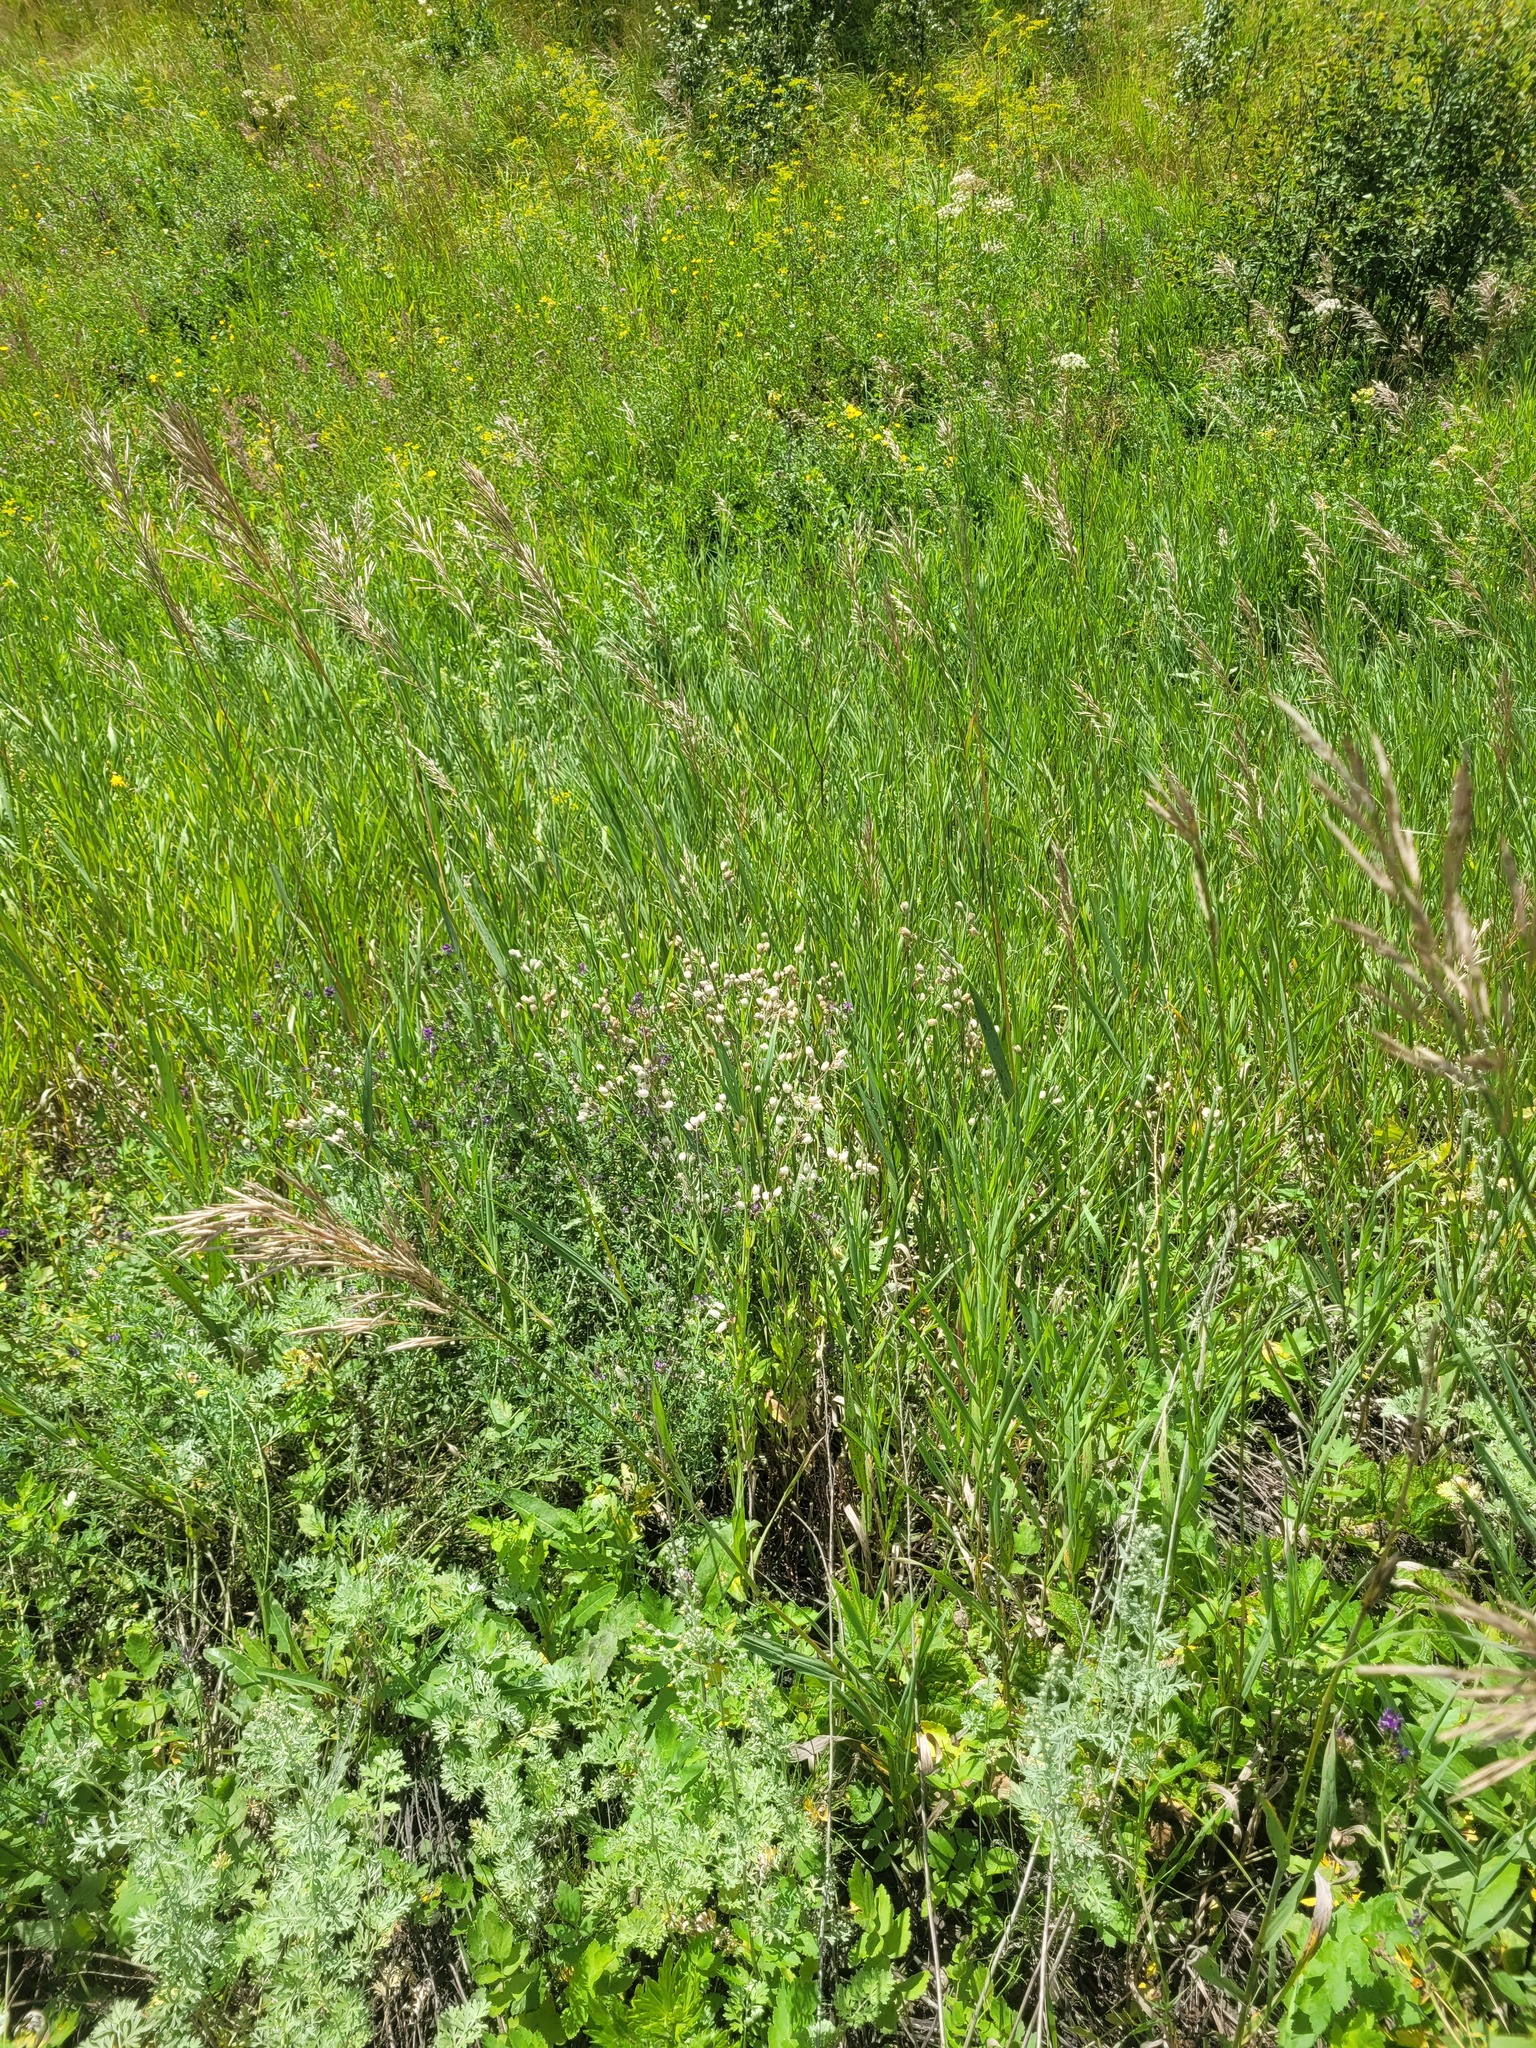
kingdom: Plantae
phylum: Tracheophyta
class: Magnoliopsida
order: Caryophyllales
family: Caryophyllaceae
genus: Silene
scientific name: Silene vulgaris
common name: Bladder campion
